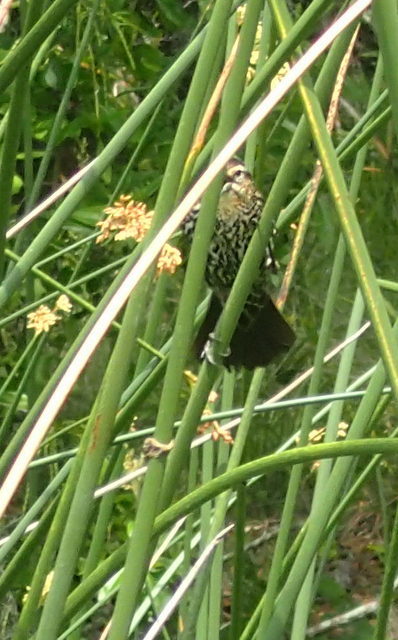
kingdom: Animalia
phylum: Chordata
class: Aves
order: Passeriformes
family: Icteridae
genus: Agelaius
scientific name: Agelaius phoeniceus
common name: Red-winged blackbird
